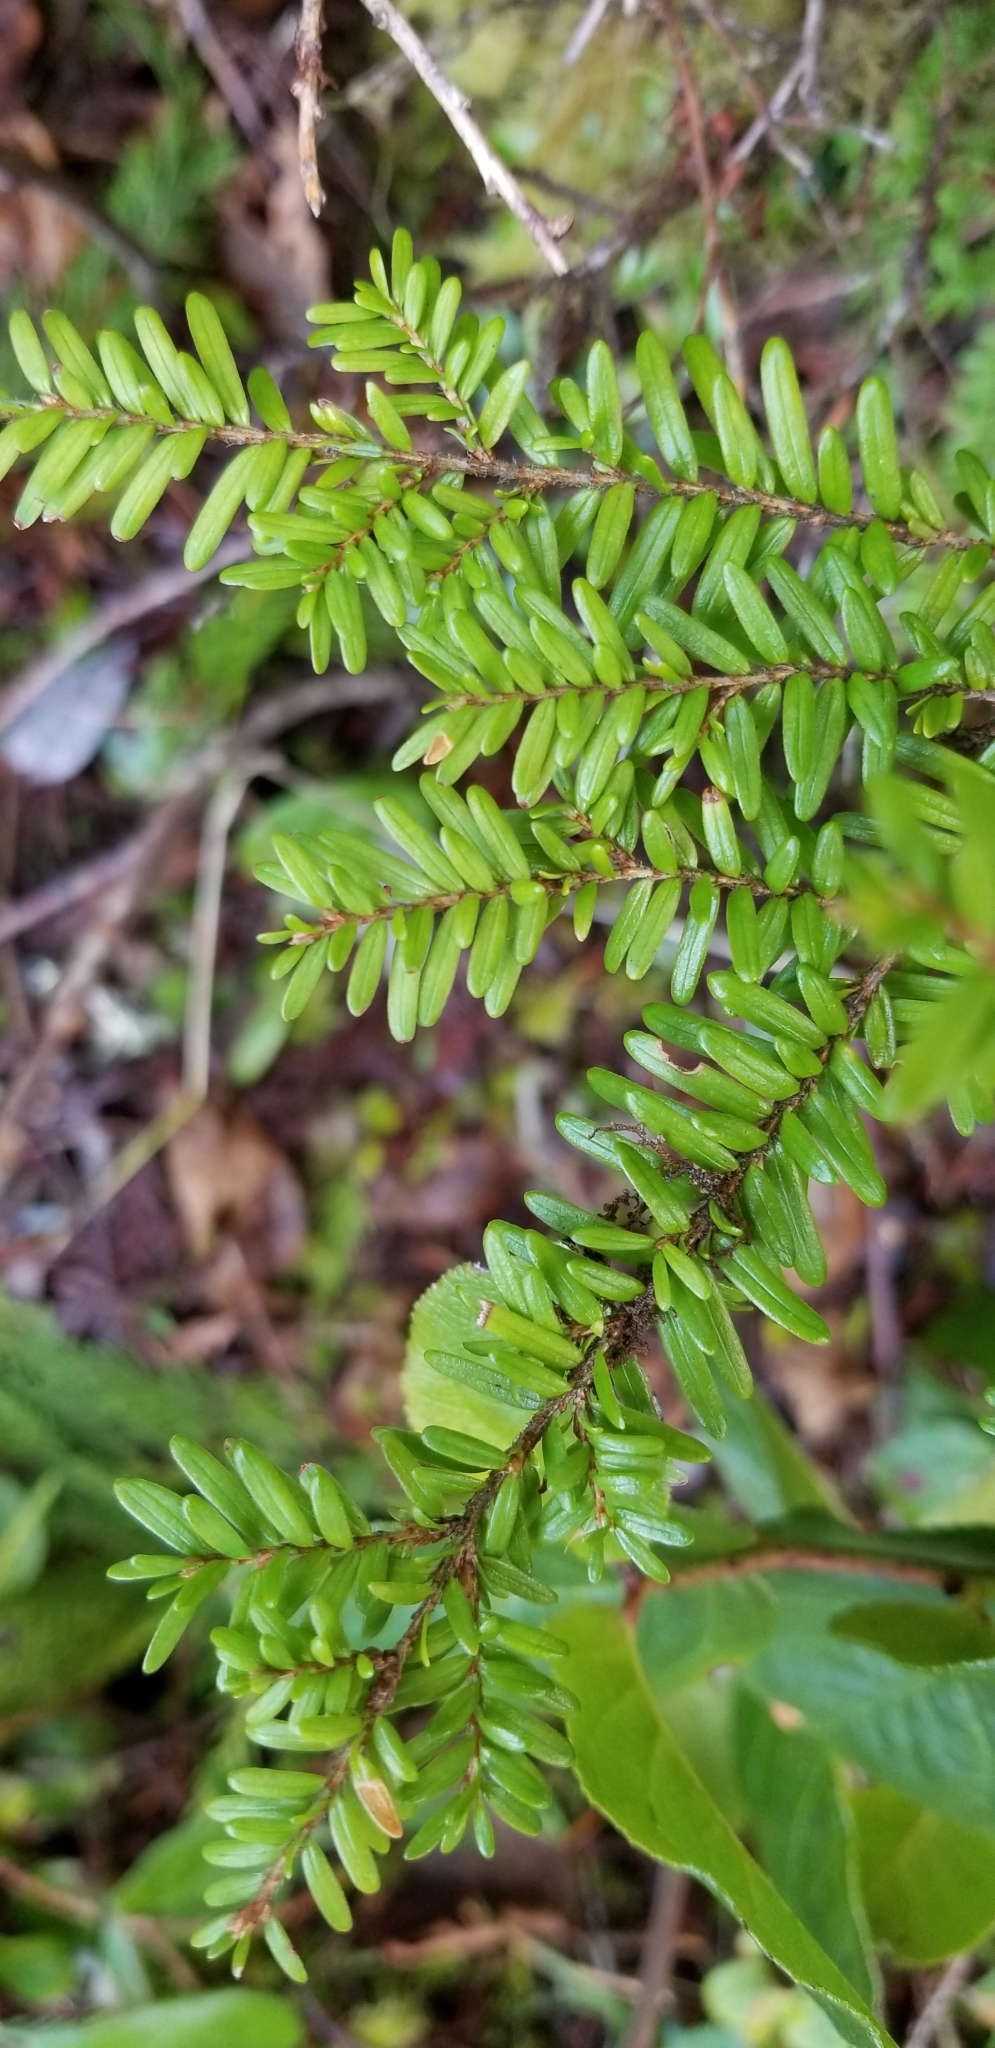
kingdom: Plantae
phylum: Tracheophyta
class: Pinopsida
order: Pinales
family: Pinaceae
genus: Tsuga
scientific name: Tsuga heterophylla
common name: Western hemlock
